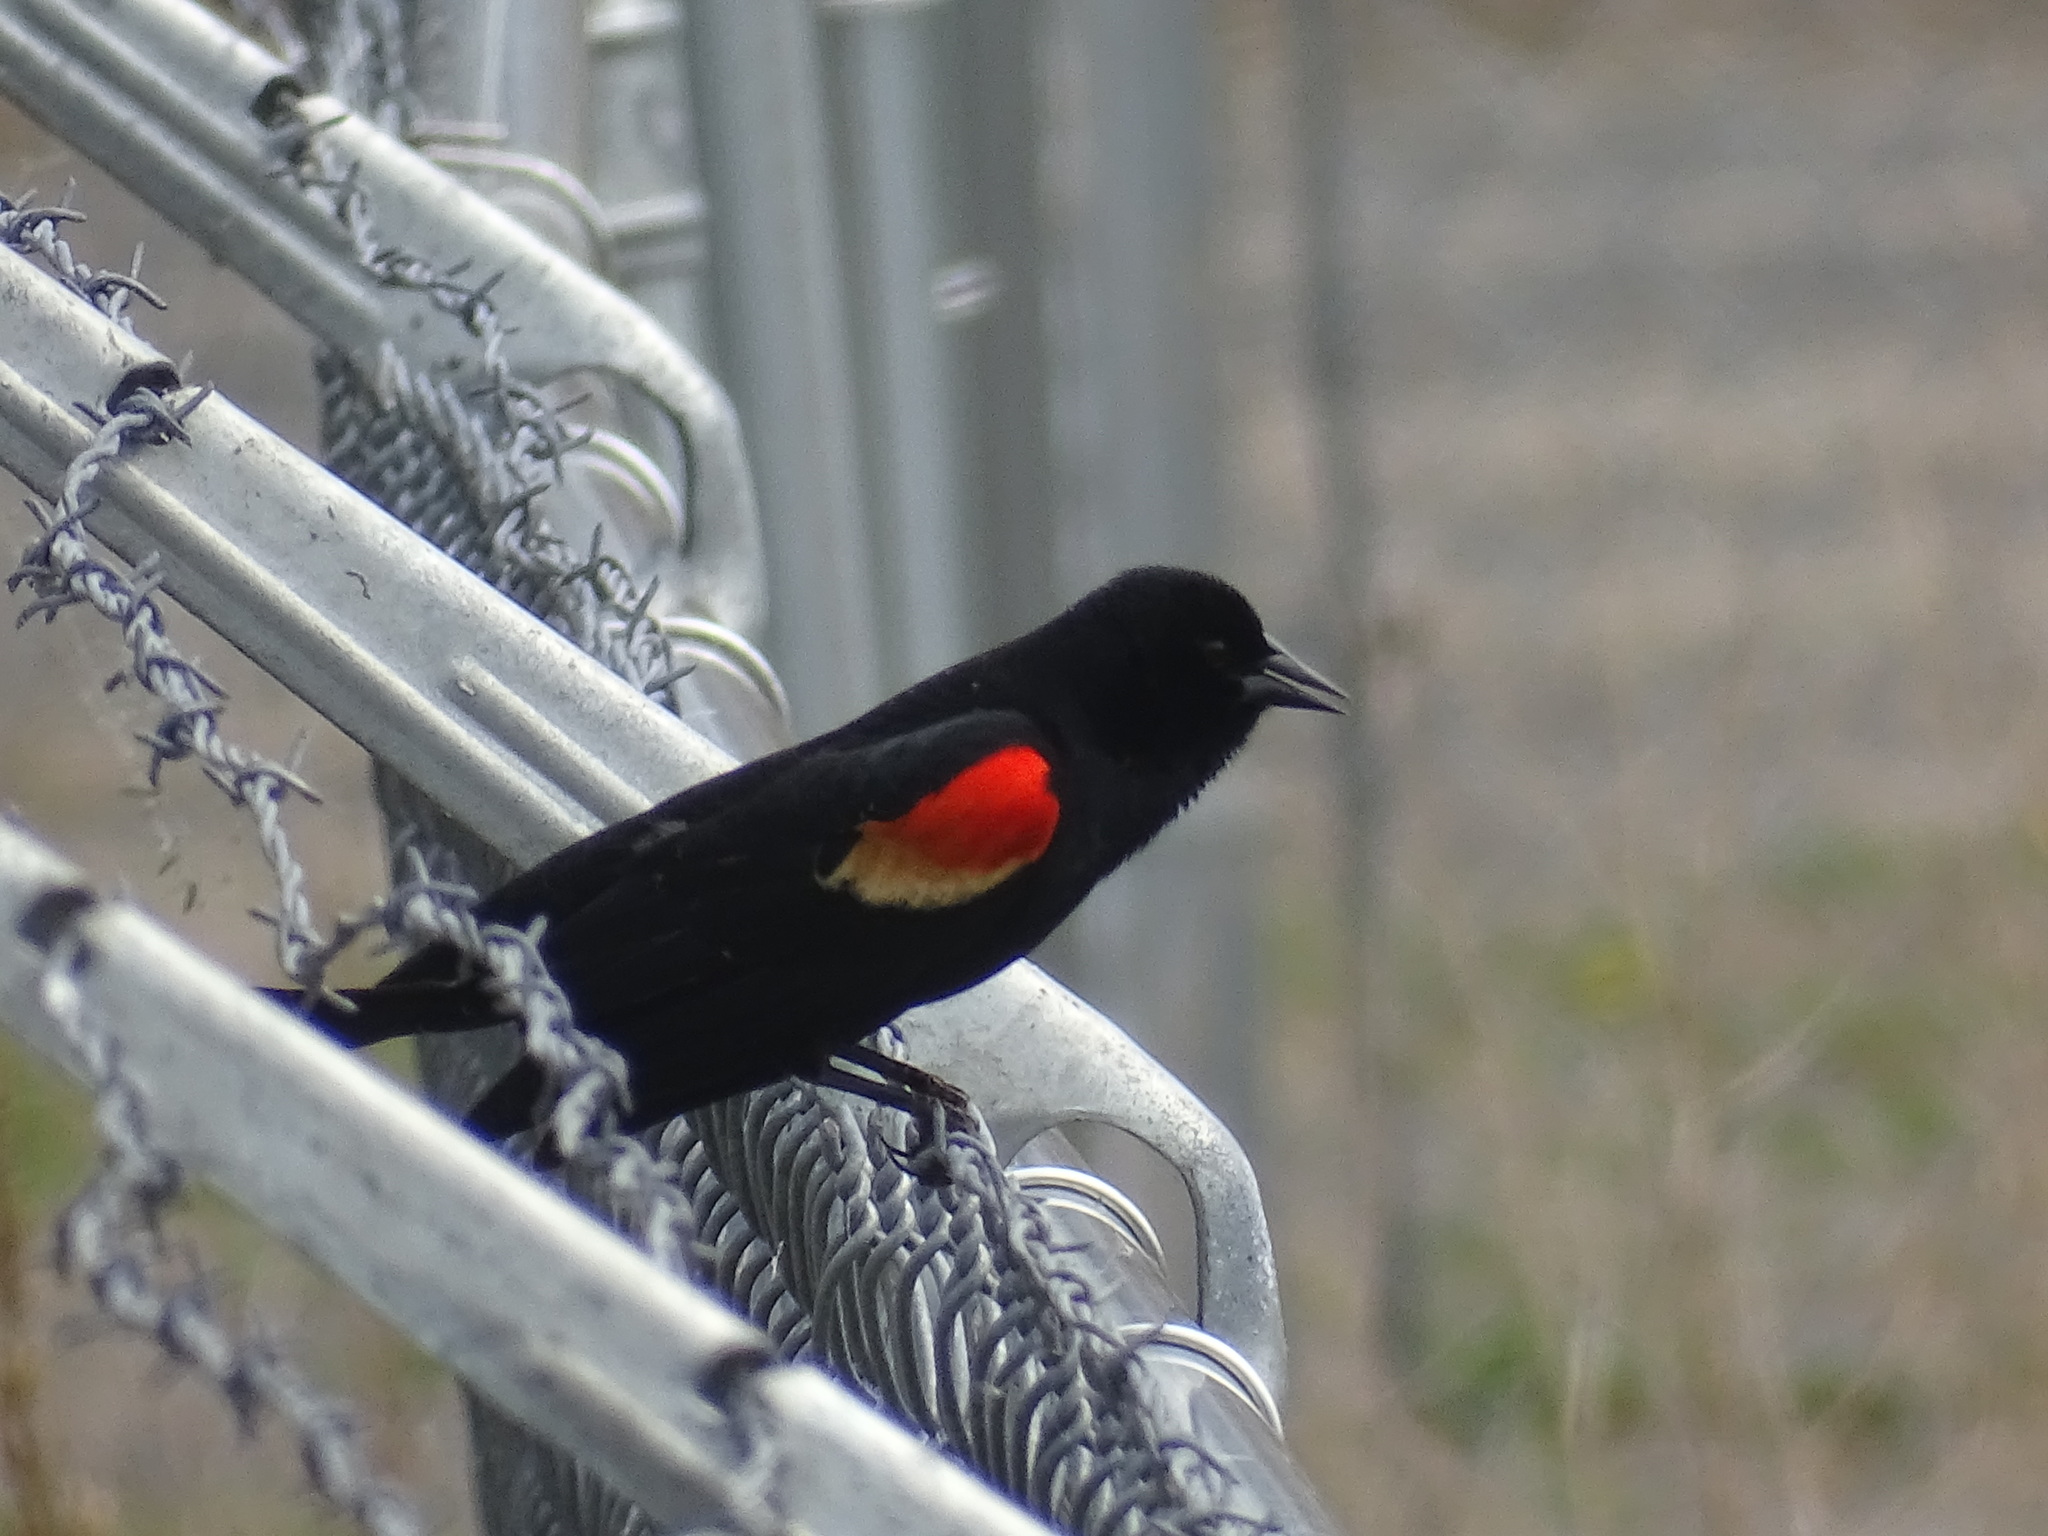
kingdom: Animalia
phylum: Chordata
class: Aves
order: Passeriformes
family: Icteridae
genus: Agelaius
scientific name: Agelaius phoeniceus
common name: Red-winged blackbird
